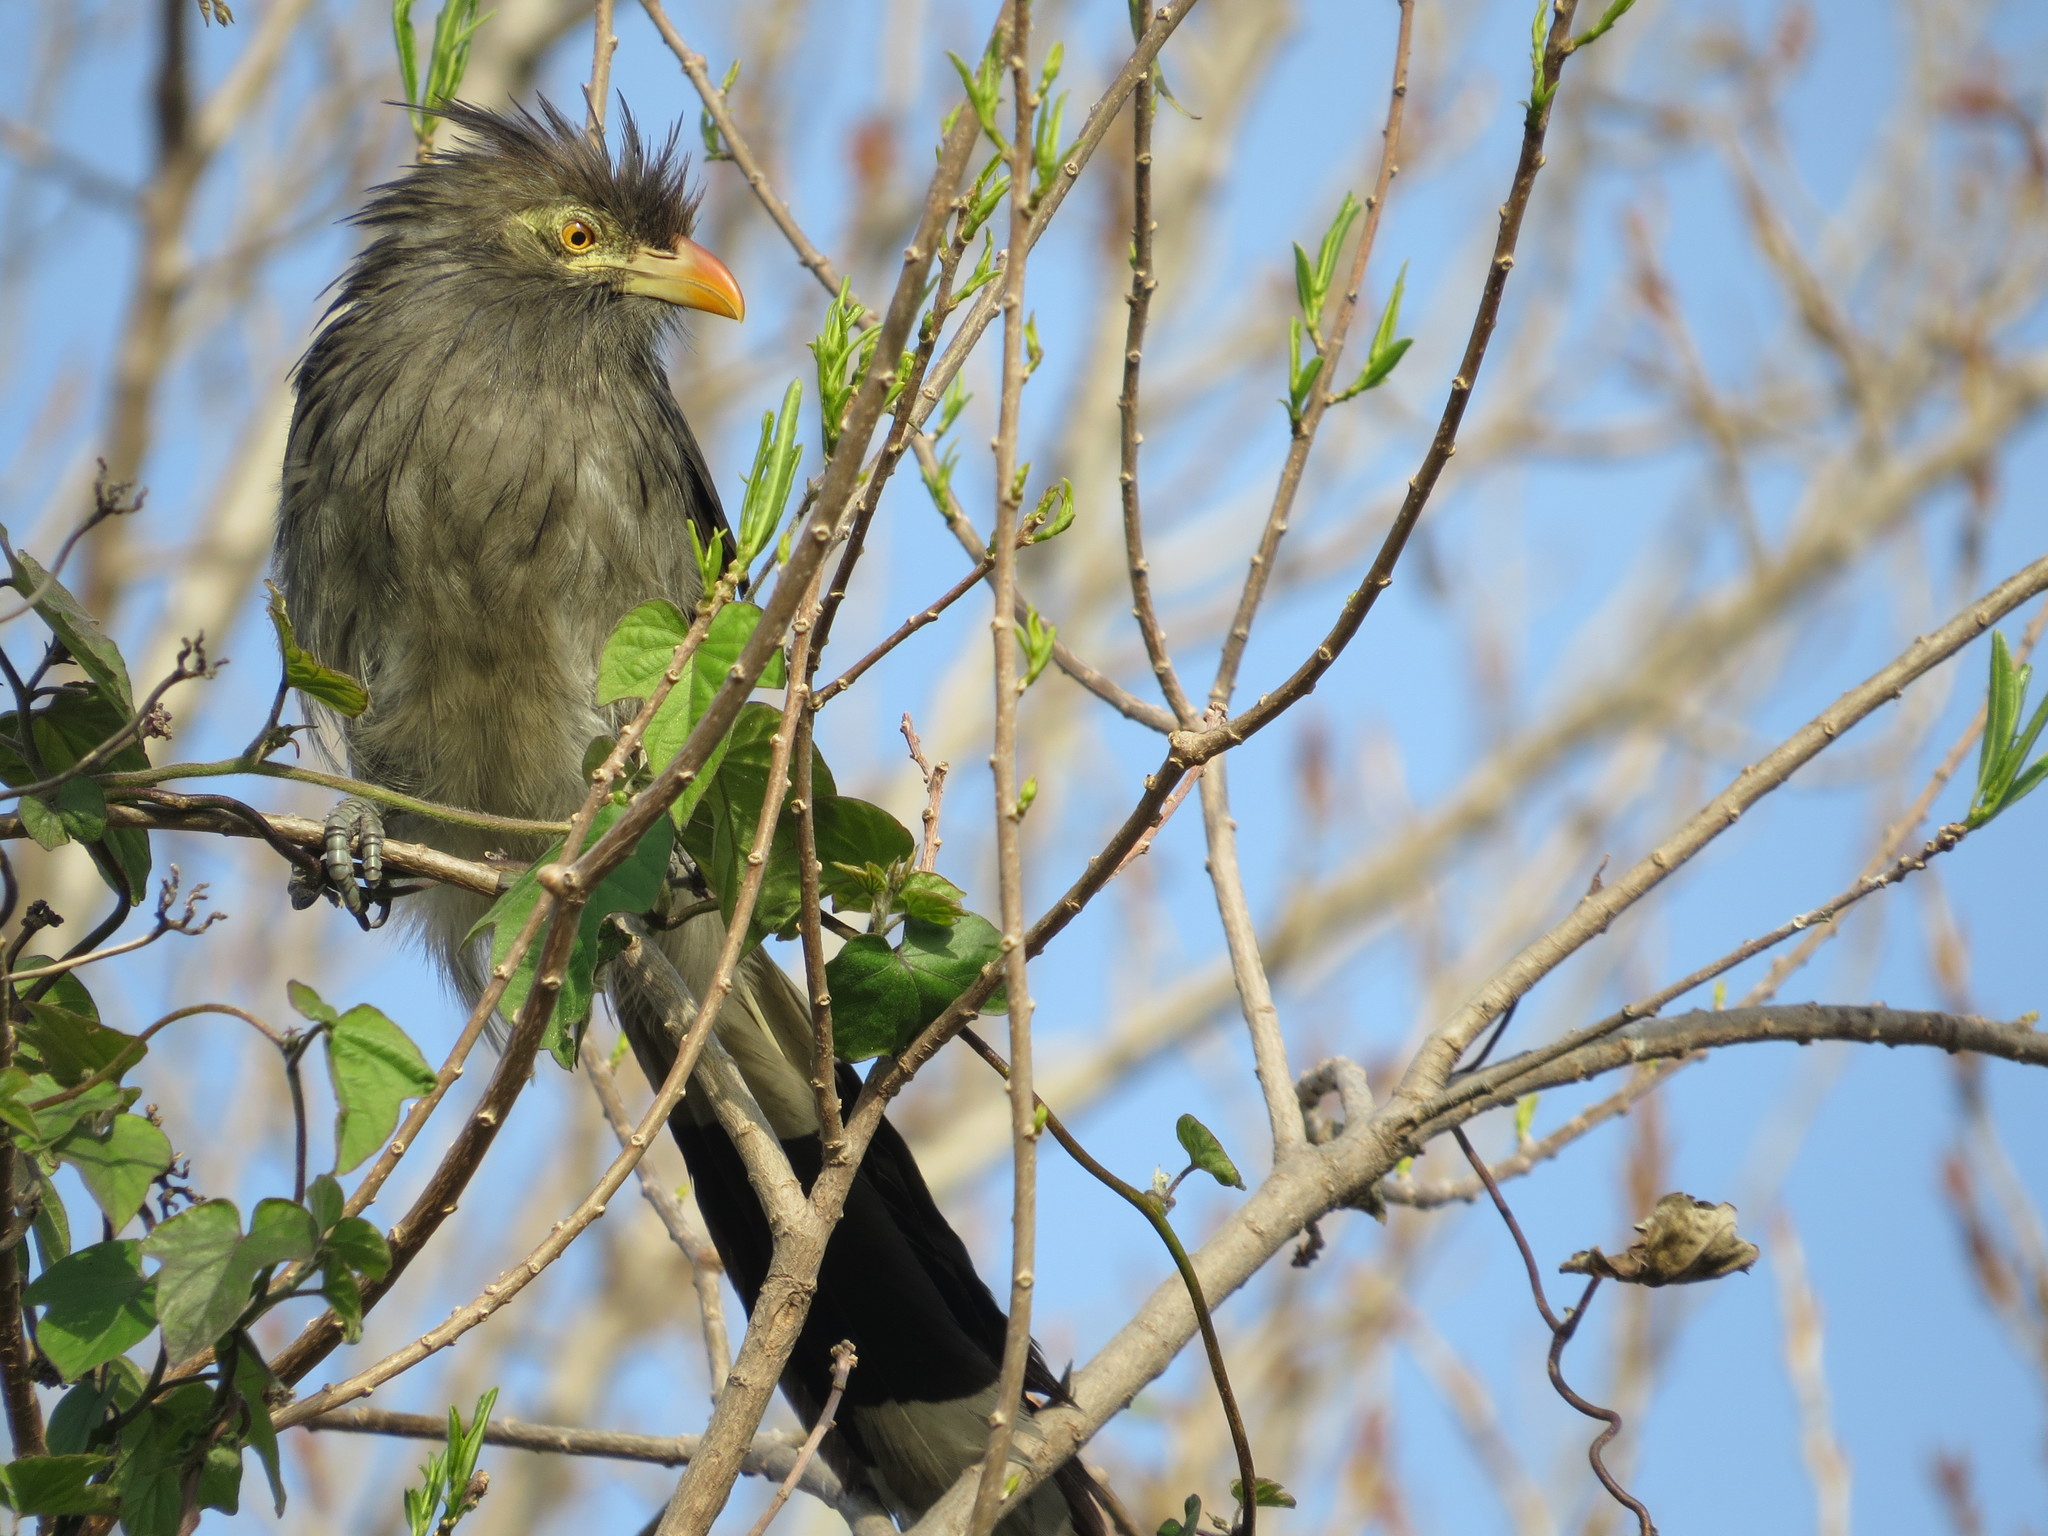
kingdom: Animalia
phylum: Chordata
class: Aves
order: Cuculiformes
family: Cuculidae
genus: Guira
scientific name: Guira guira
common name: Guira cuckoo
